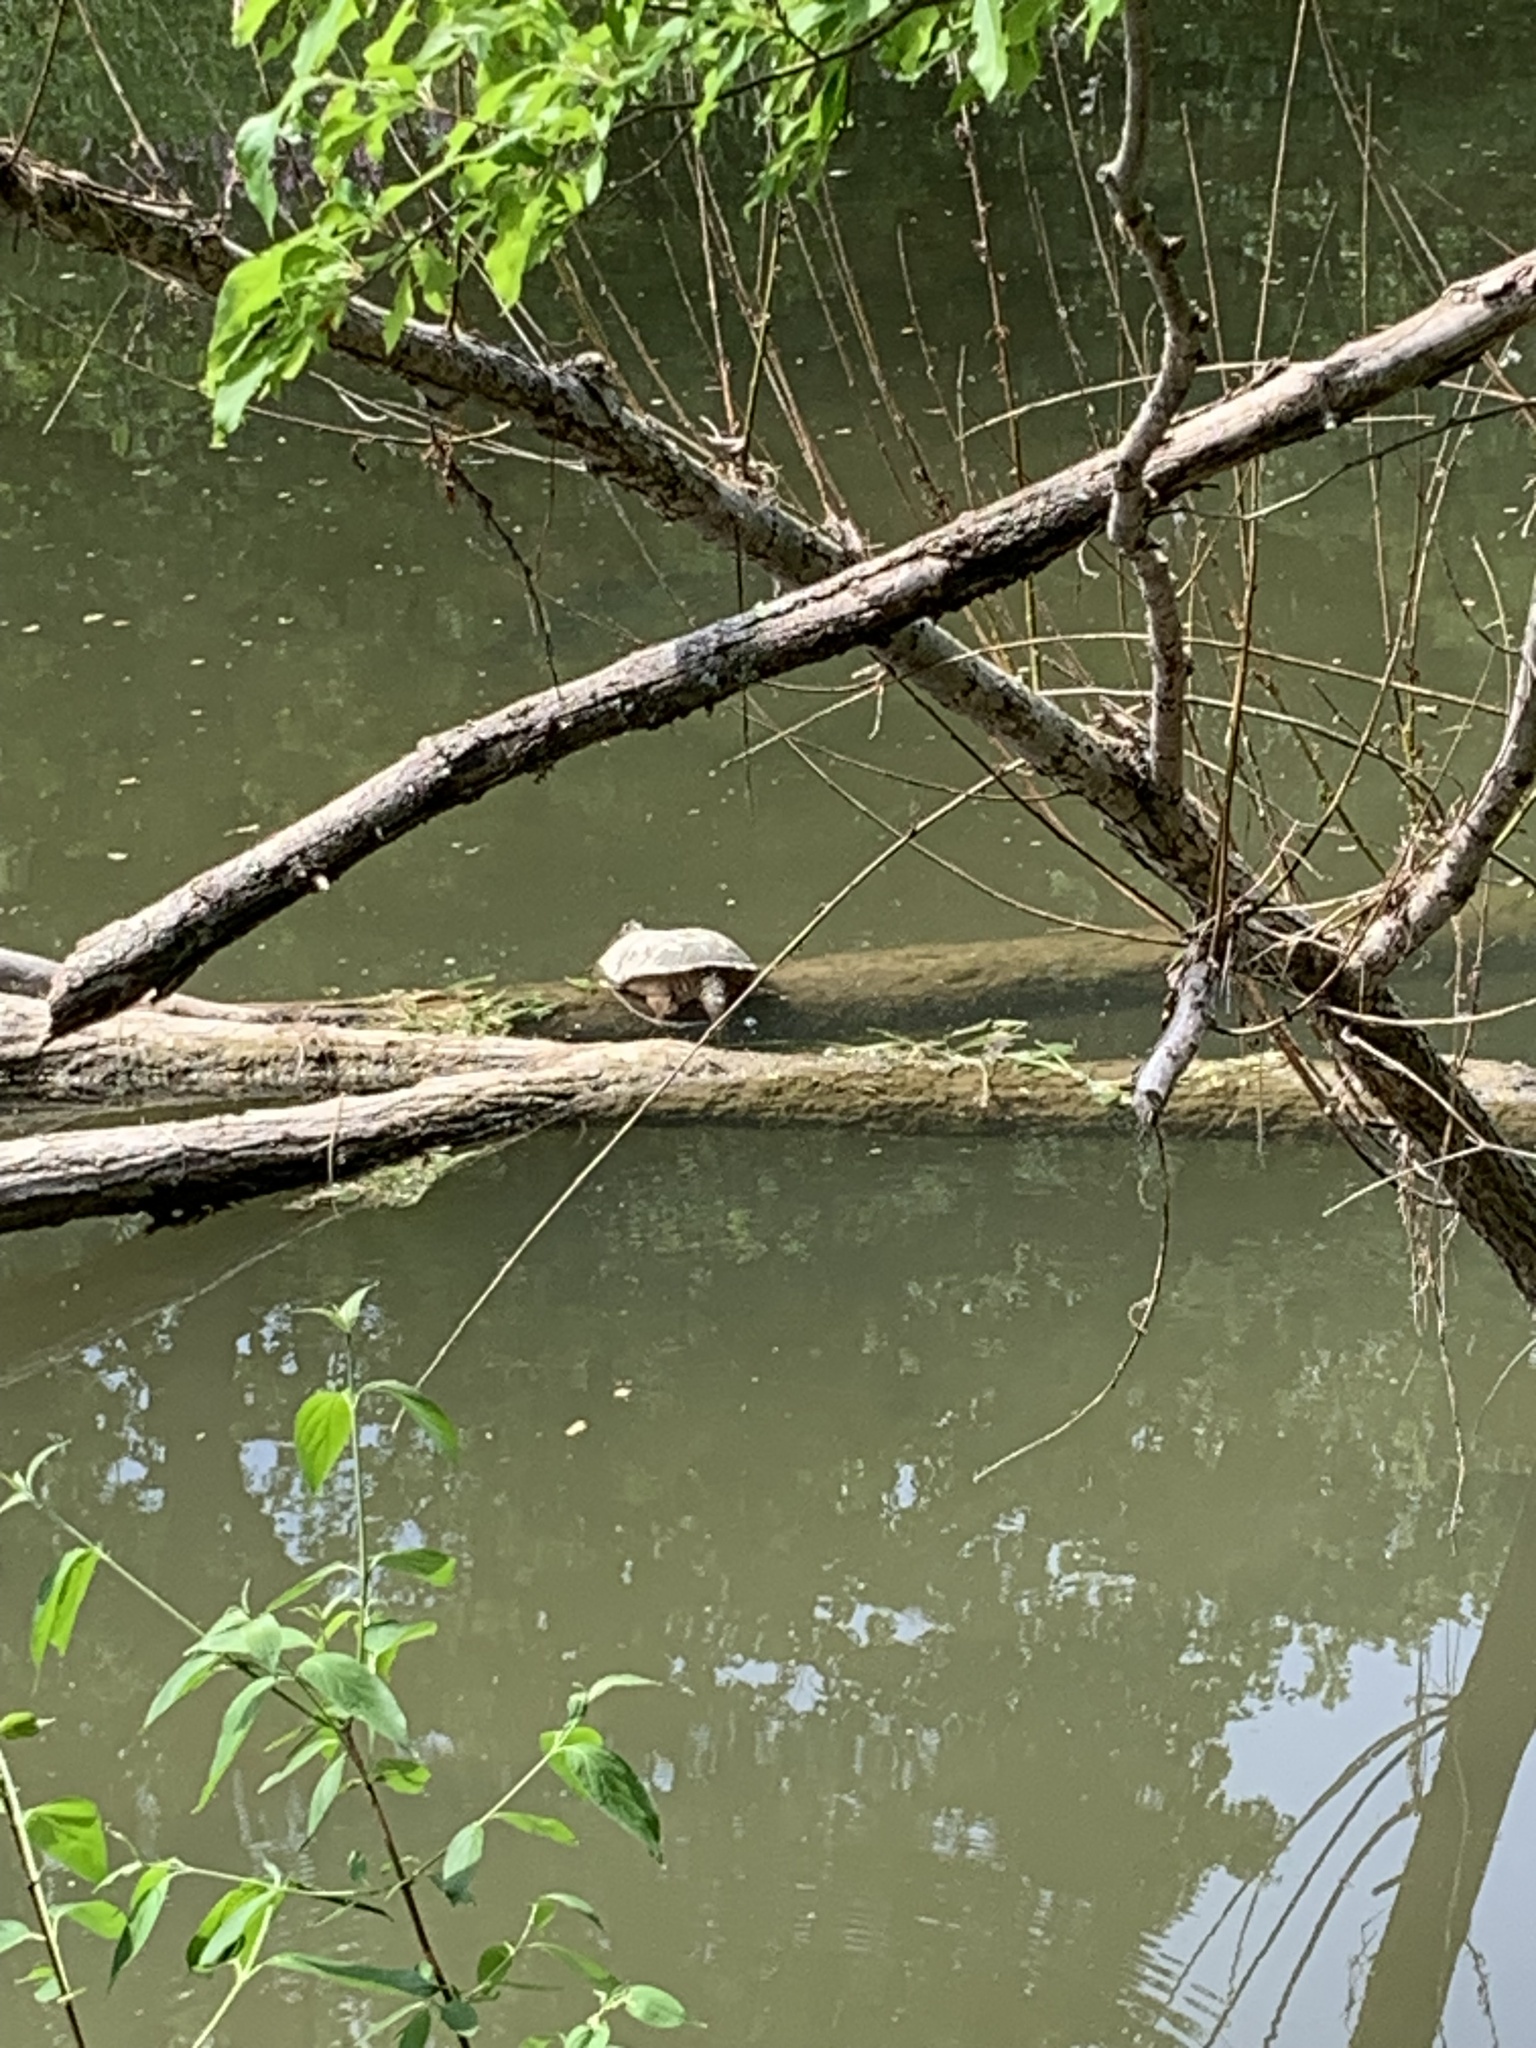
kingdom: Animalia
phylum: Chordata
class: Testudines
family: Chelydridae
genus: Chelydra
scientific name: Chelydra serpentina
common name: Common snapping turtle
